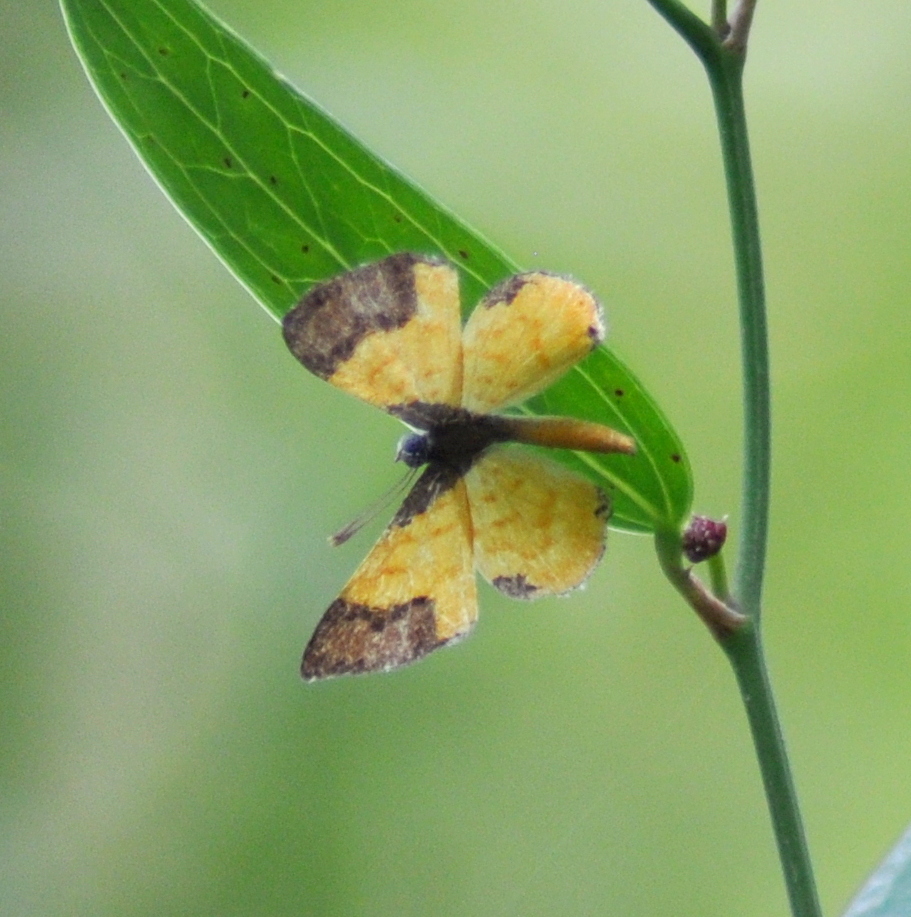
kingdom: Animalia
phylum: Arthropoda
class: Insecta
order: Lepidoptera
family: Riodinidae
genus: Echenais
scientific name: Echenais Adelotypa bolena
